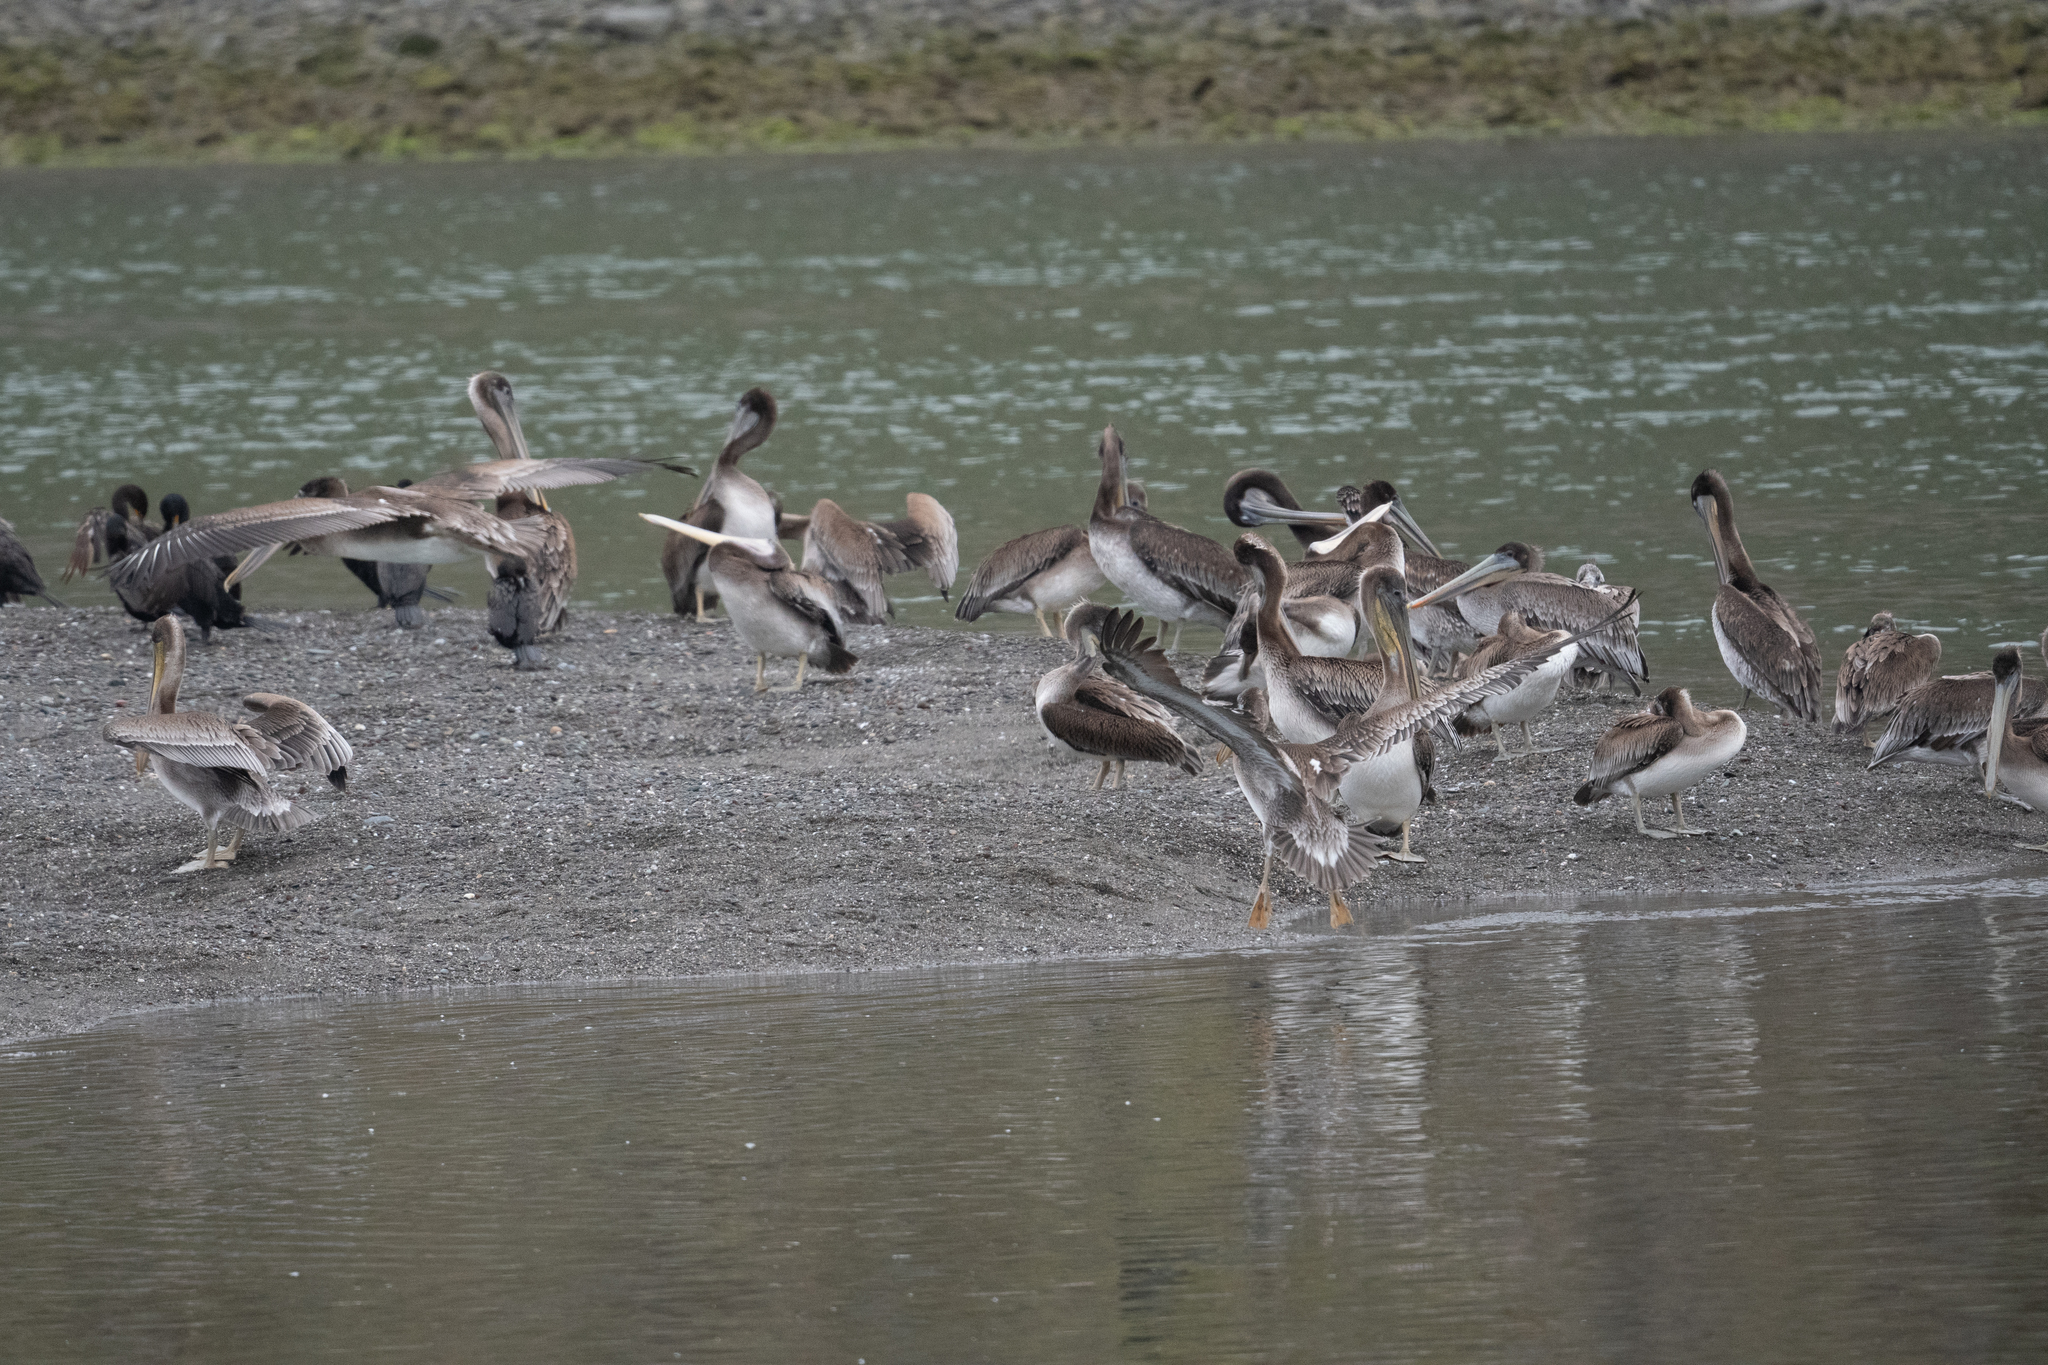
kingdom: Animalia
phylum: Chordata
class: Aves
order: Pelecaniformes
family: Pelecanidae
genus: Pelecanus
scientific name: Pelecanus occidentalis
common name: Brown pelican
